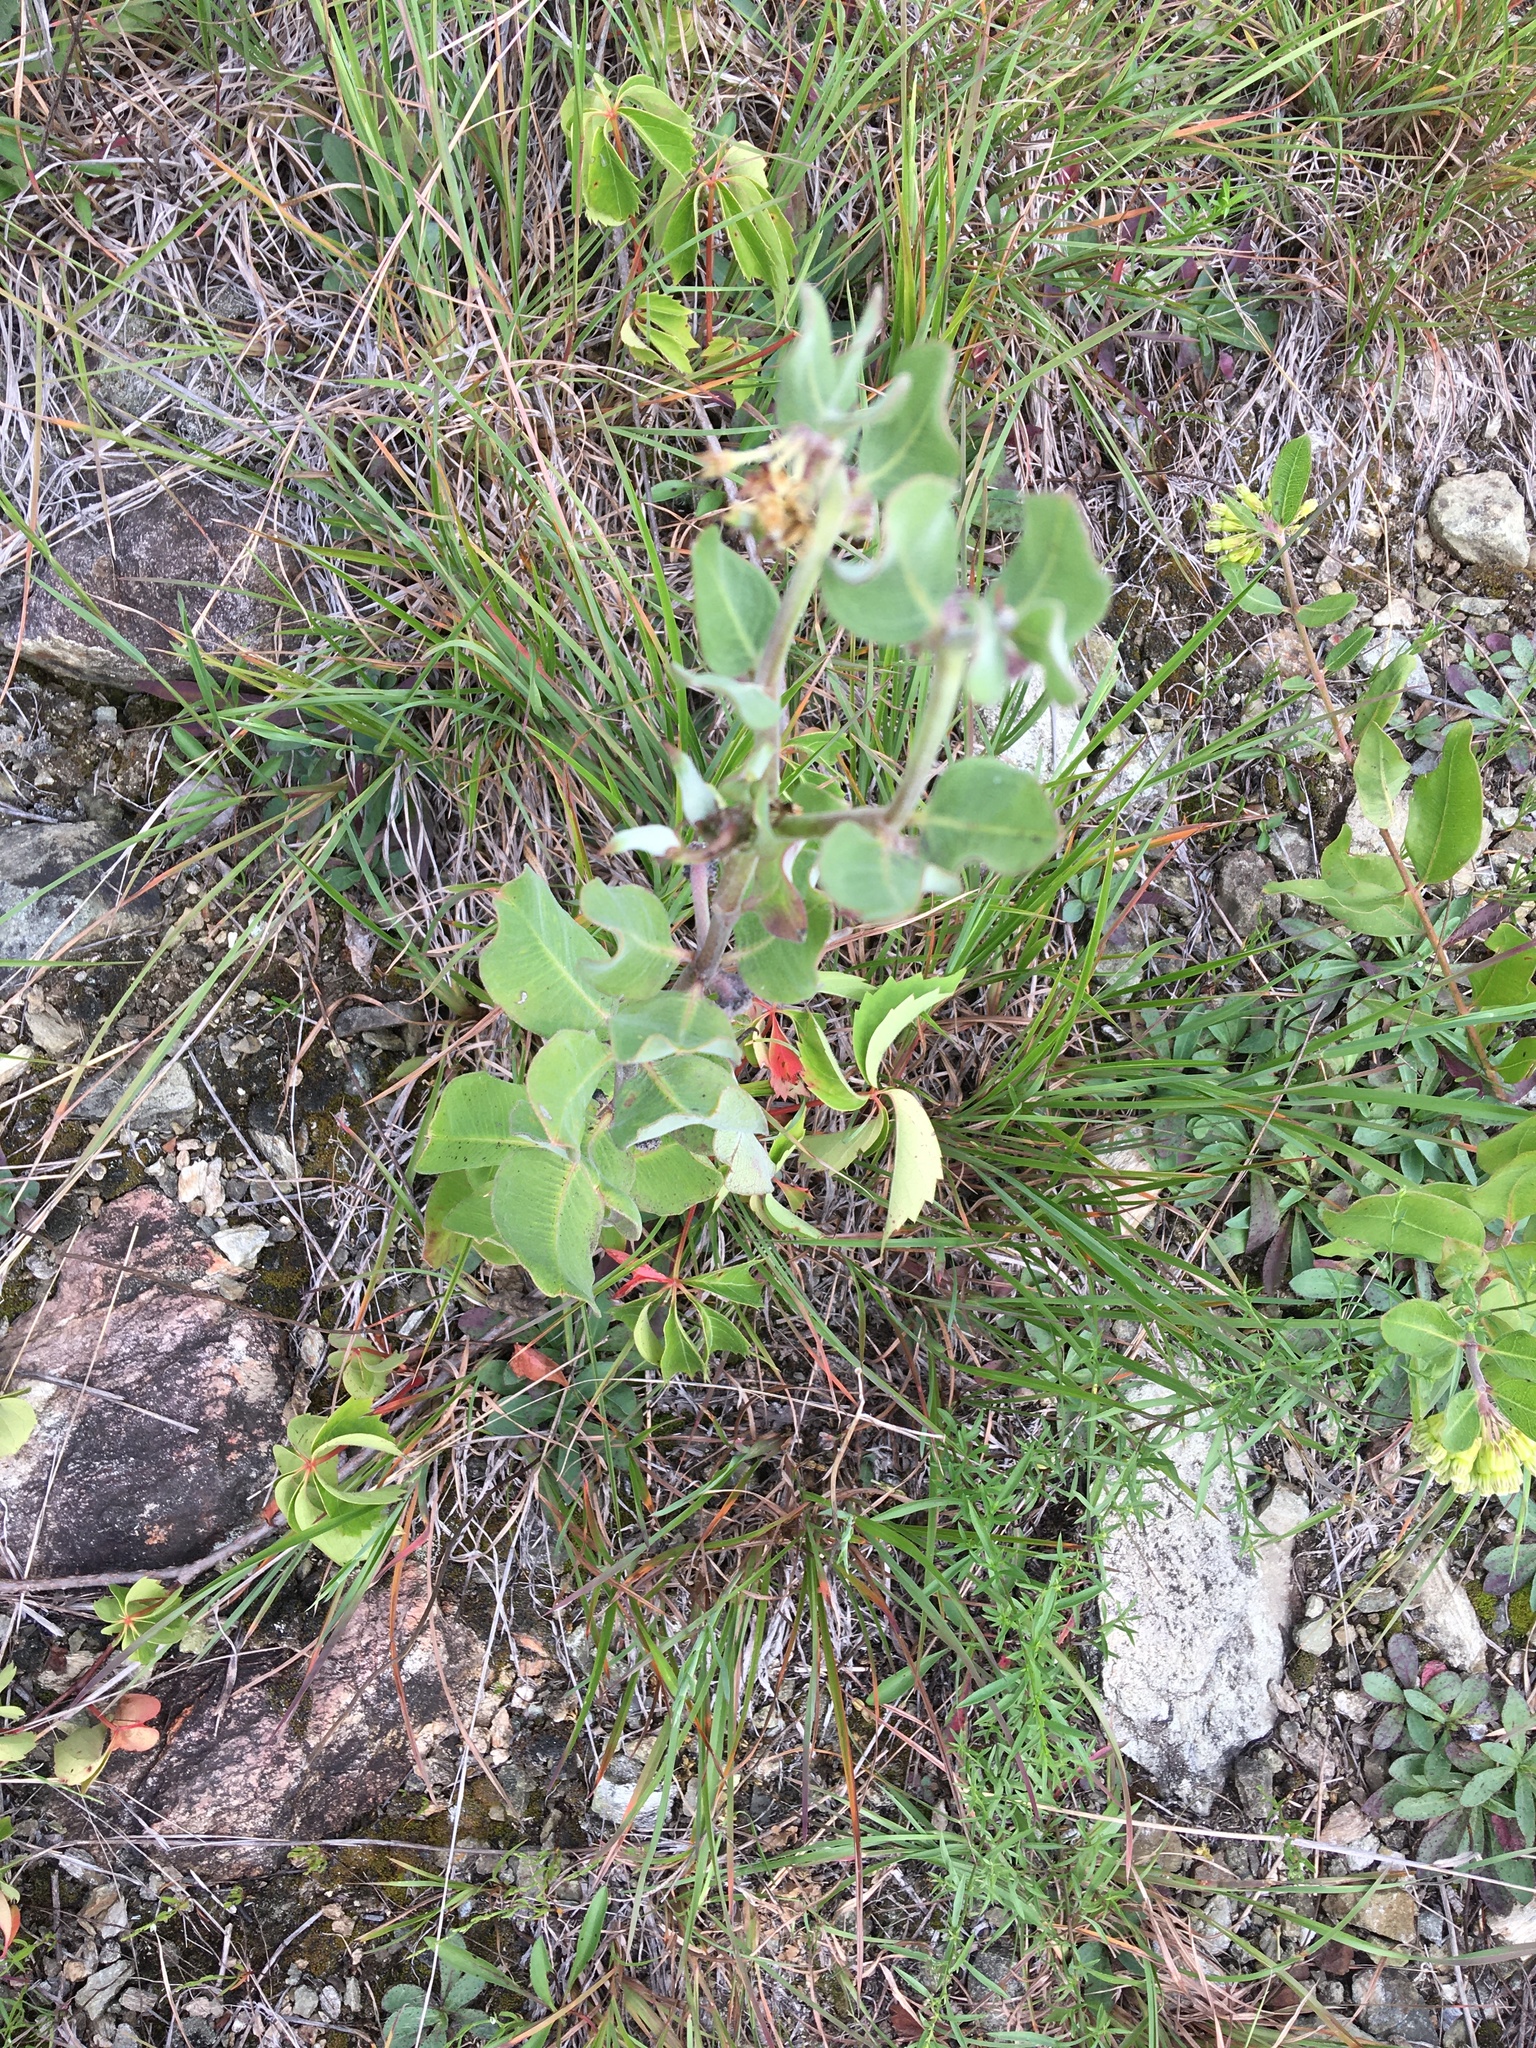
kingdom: Plantae
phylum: Tracheophyta
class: Magnoliopsida
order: Gentianales
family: Apocynaceae
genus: Asclepias
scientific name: Asclepias viridiflora
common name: Green comet milkweed
